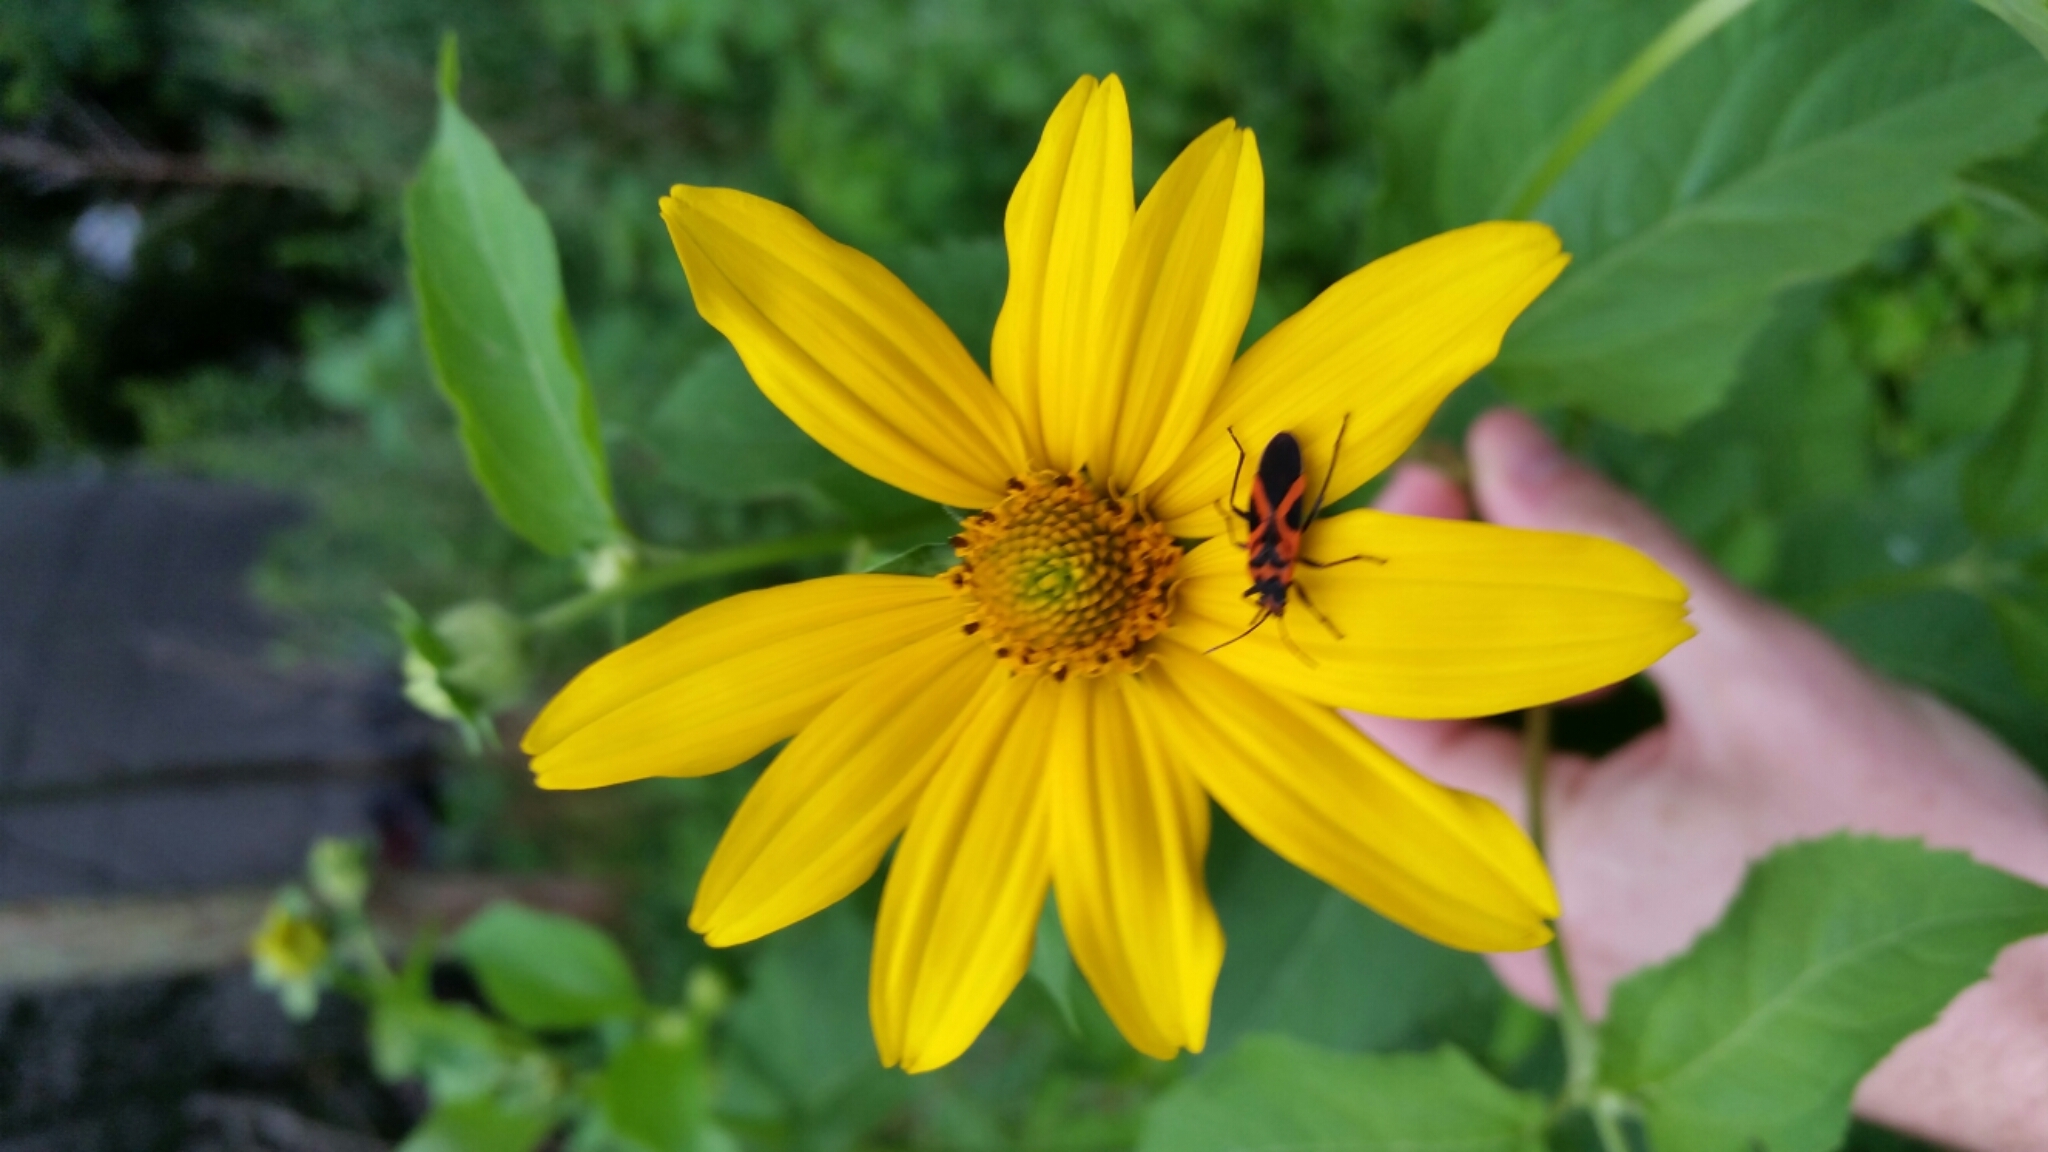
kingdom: Animalia
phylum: Arthropoda
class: Insecta
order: Hemiptera
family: Lygaeidae
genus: Lygaeus
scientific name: Lygaeus turcicus
